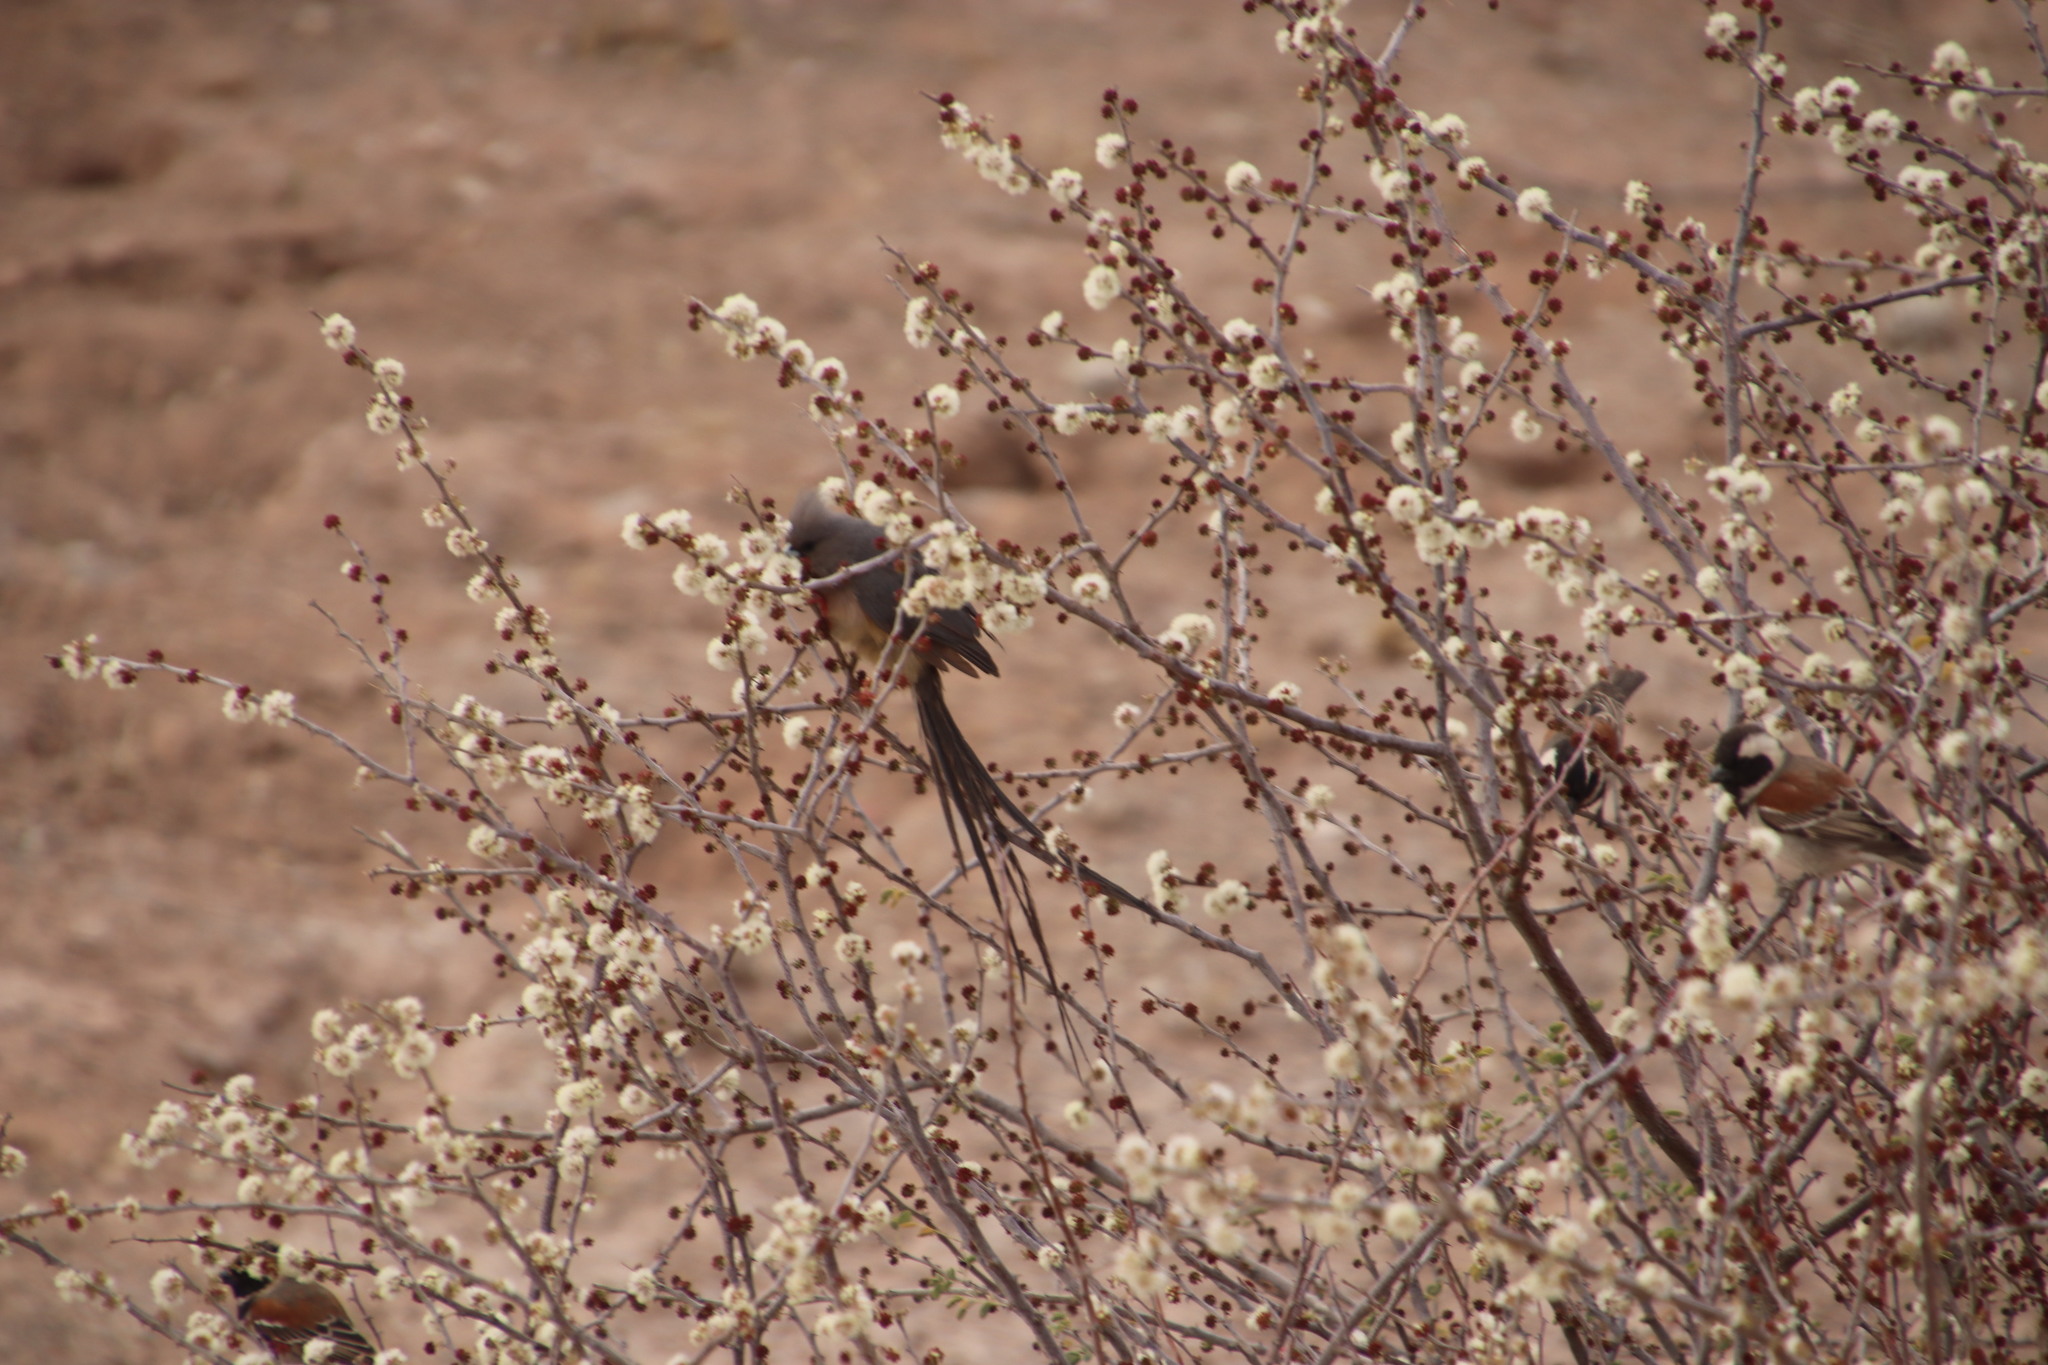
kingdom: Animalia
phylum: Chordata
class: Aves
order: Passeriformes
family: Passeridae
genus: Passer
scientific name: Passer melanurus
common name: Cape sparrow
